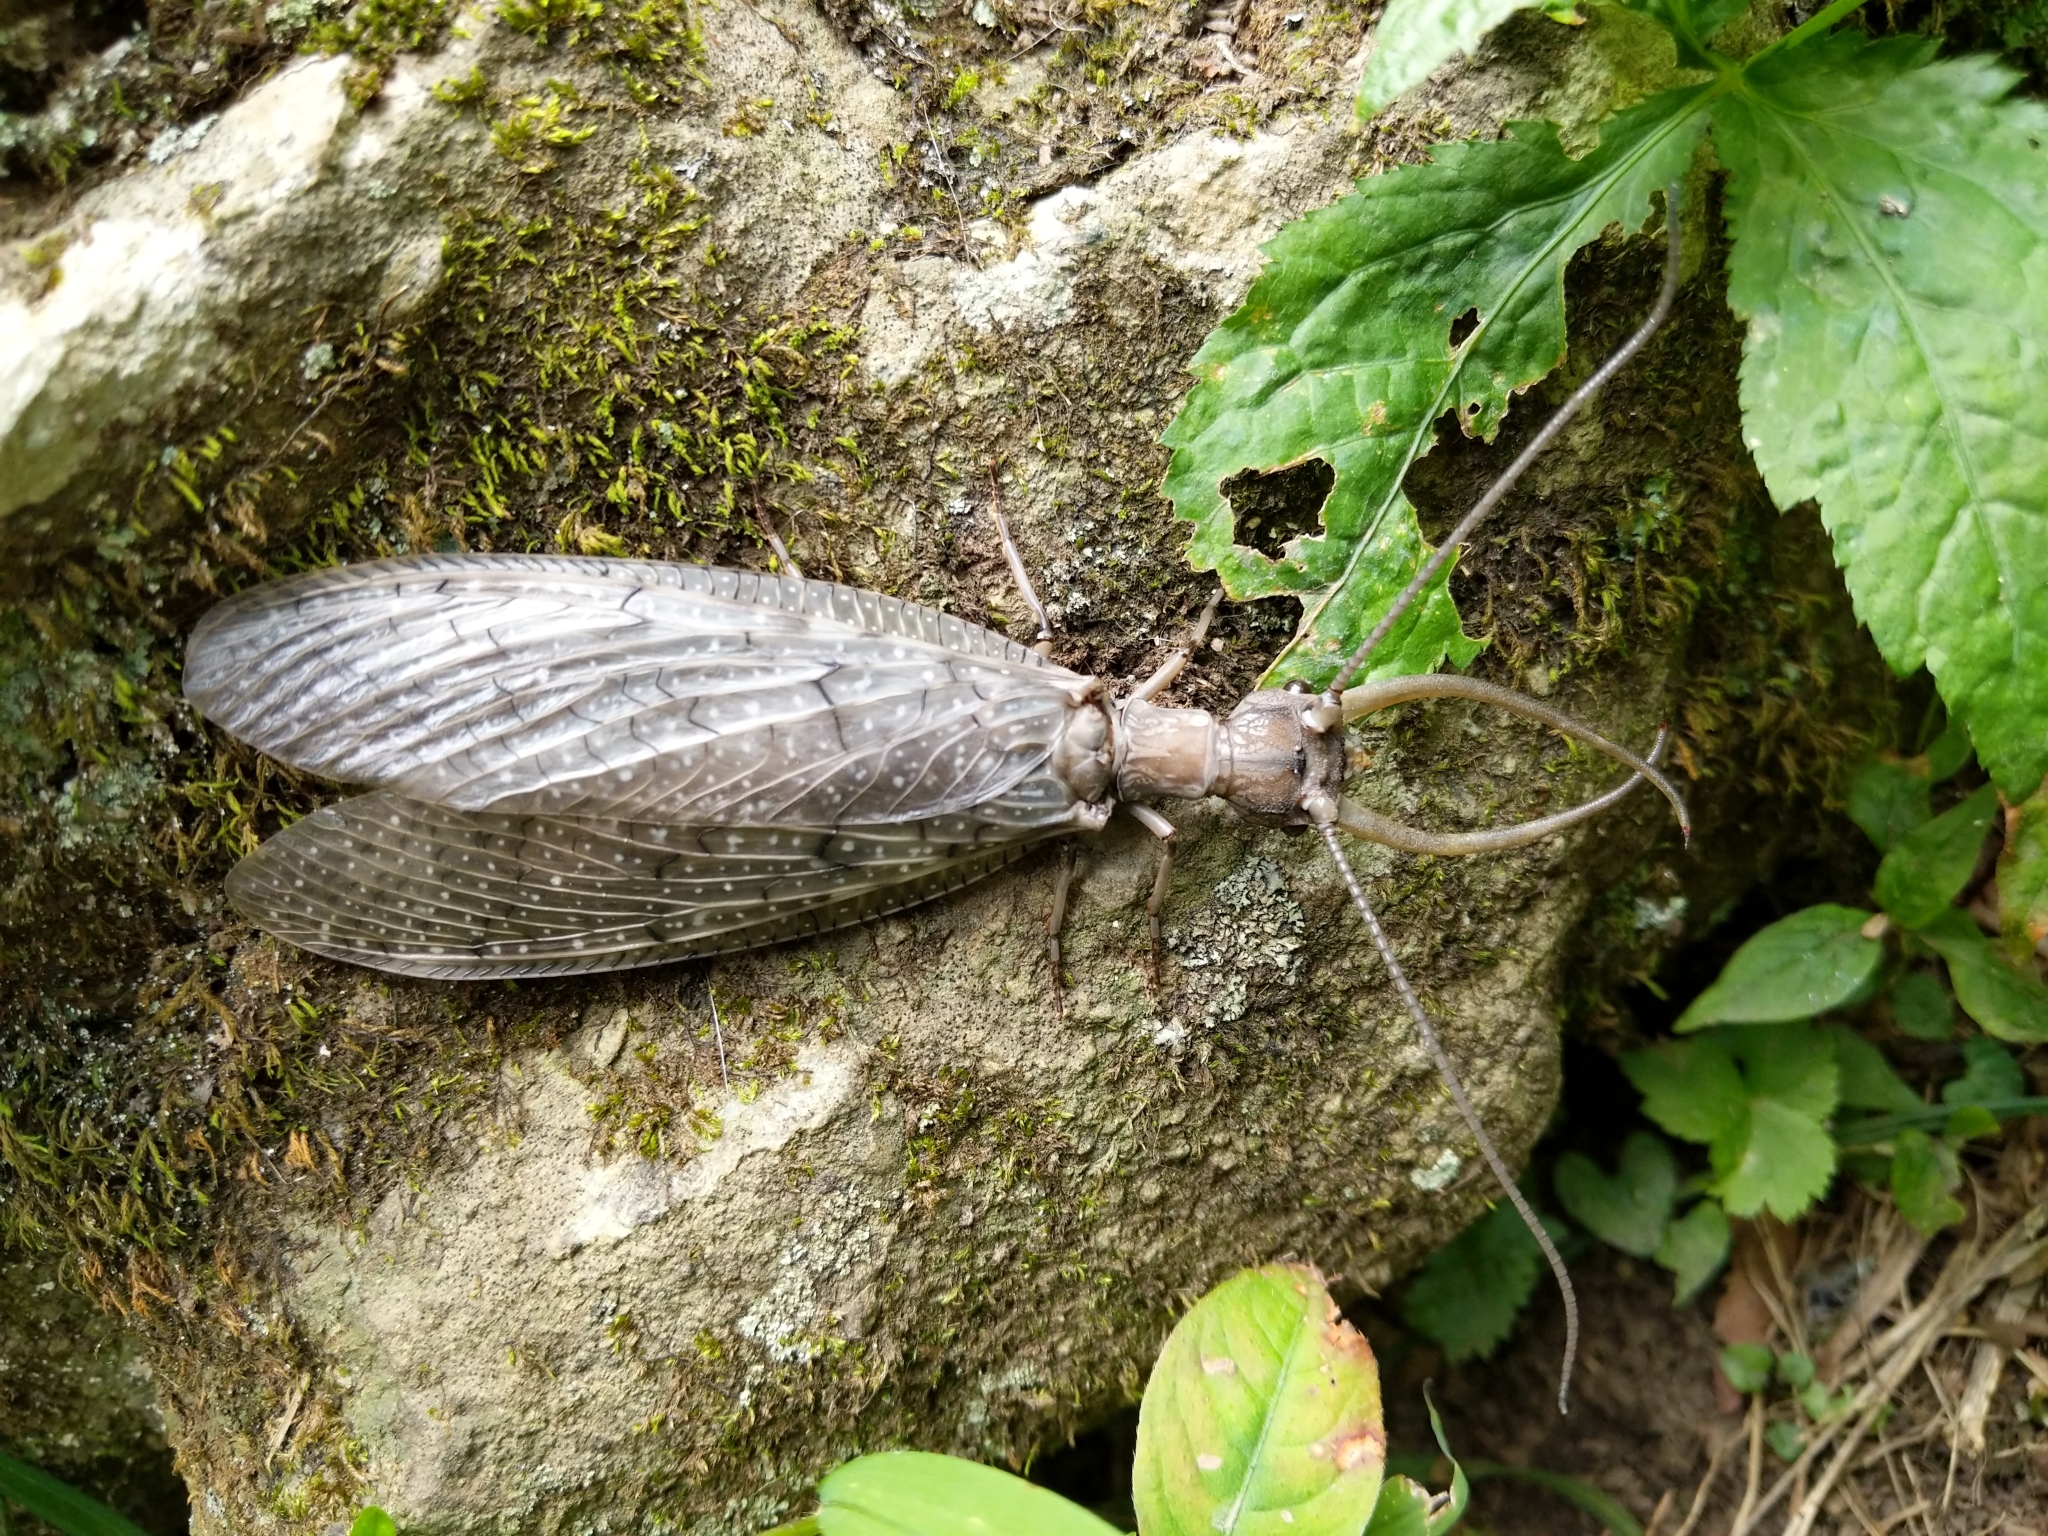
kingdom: Animalia
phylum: Arthropoda
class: Insecta
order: Megaloptera
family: Corydalidae
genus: Corydalus
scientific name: Corydalus cornutus
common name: Dobsonfly
